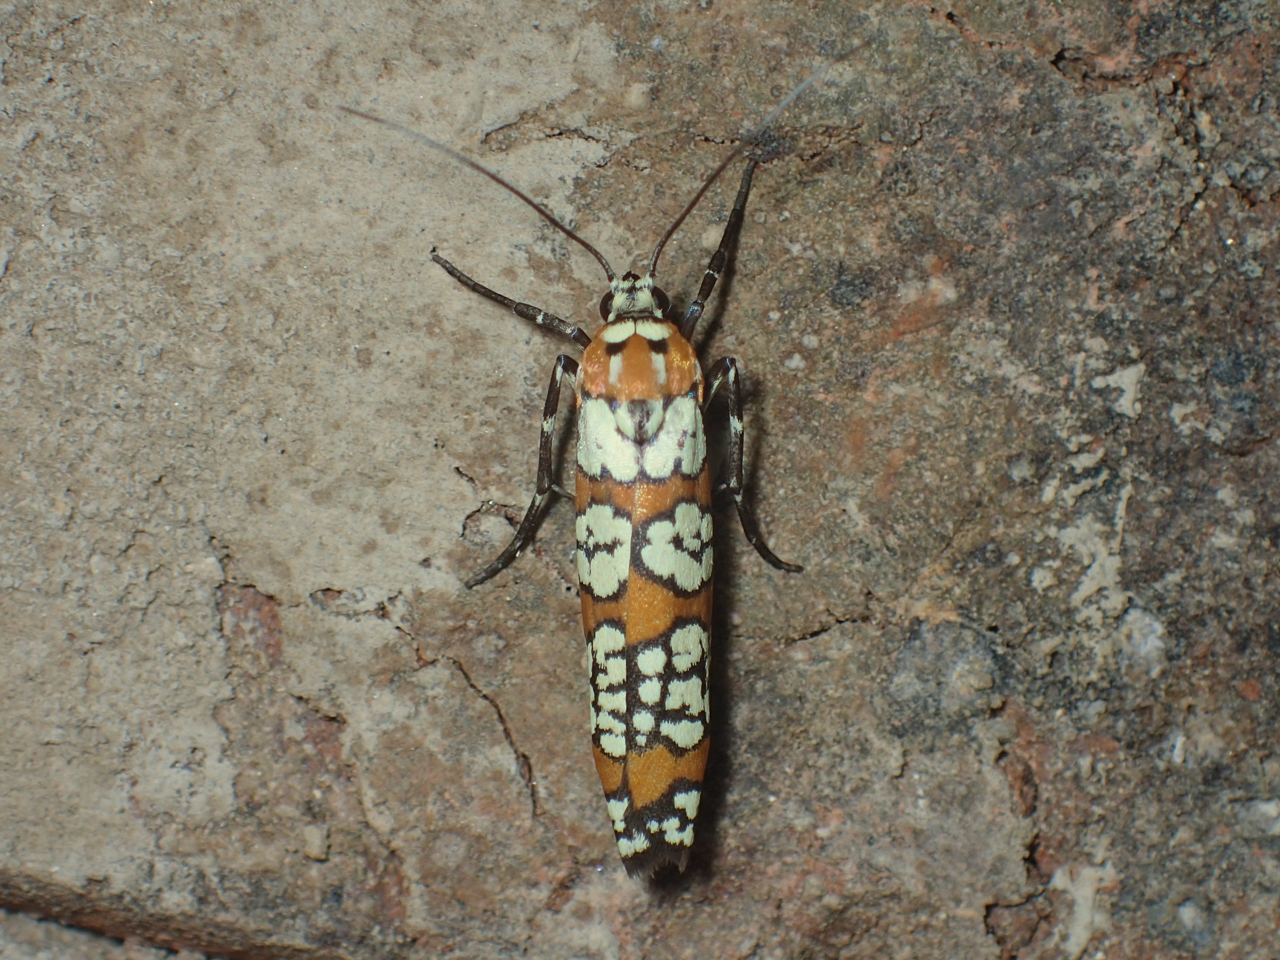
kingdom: Animalia
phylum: Arthropoda
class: Insecta
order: Lepidoptera
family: Attevidae
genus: Atteva
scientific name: Atteva punctella
